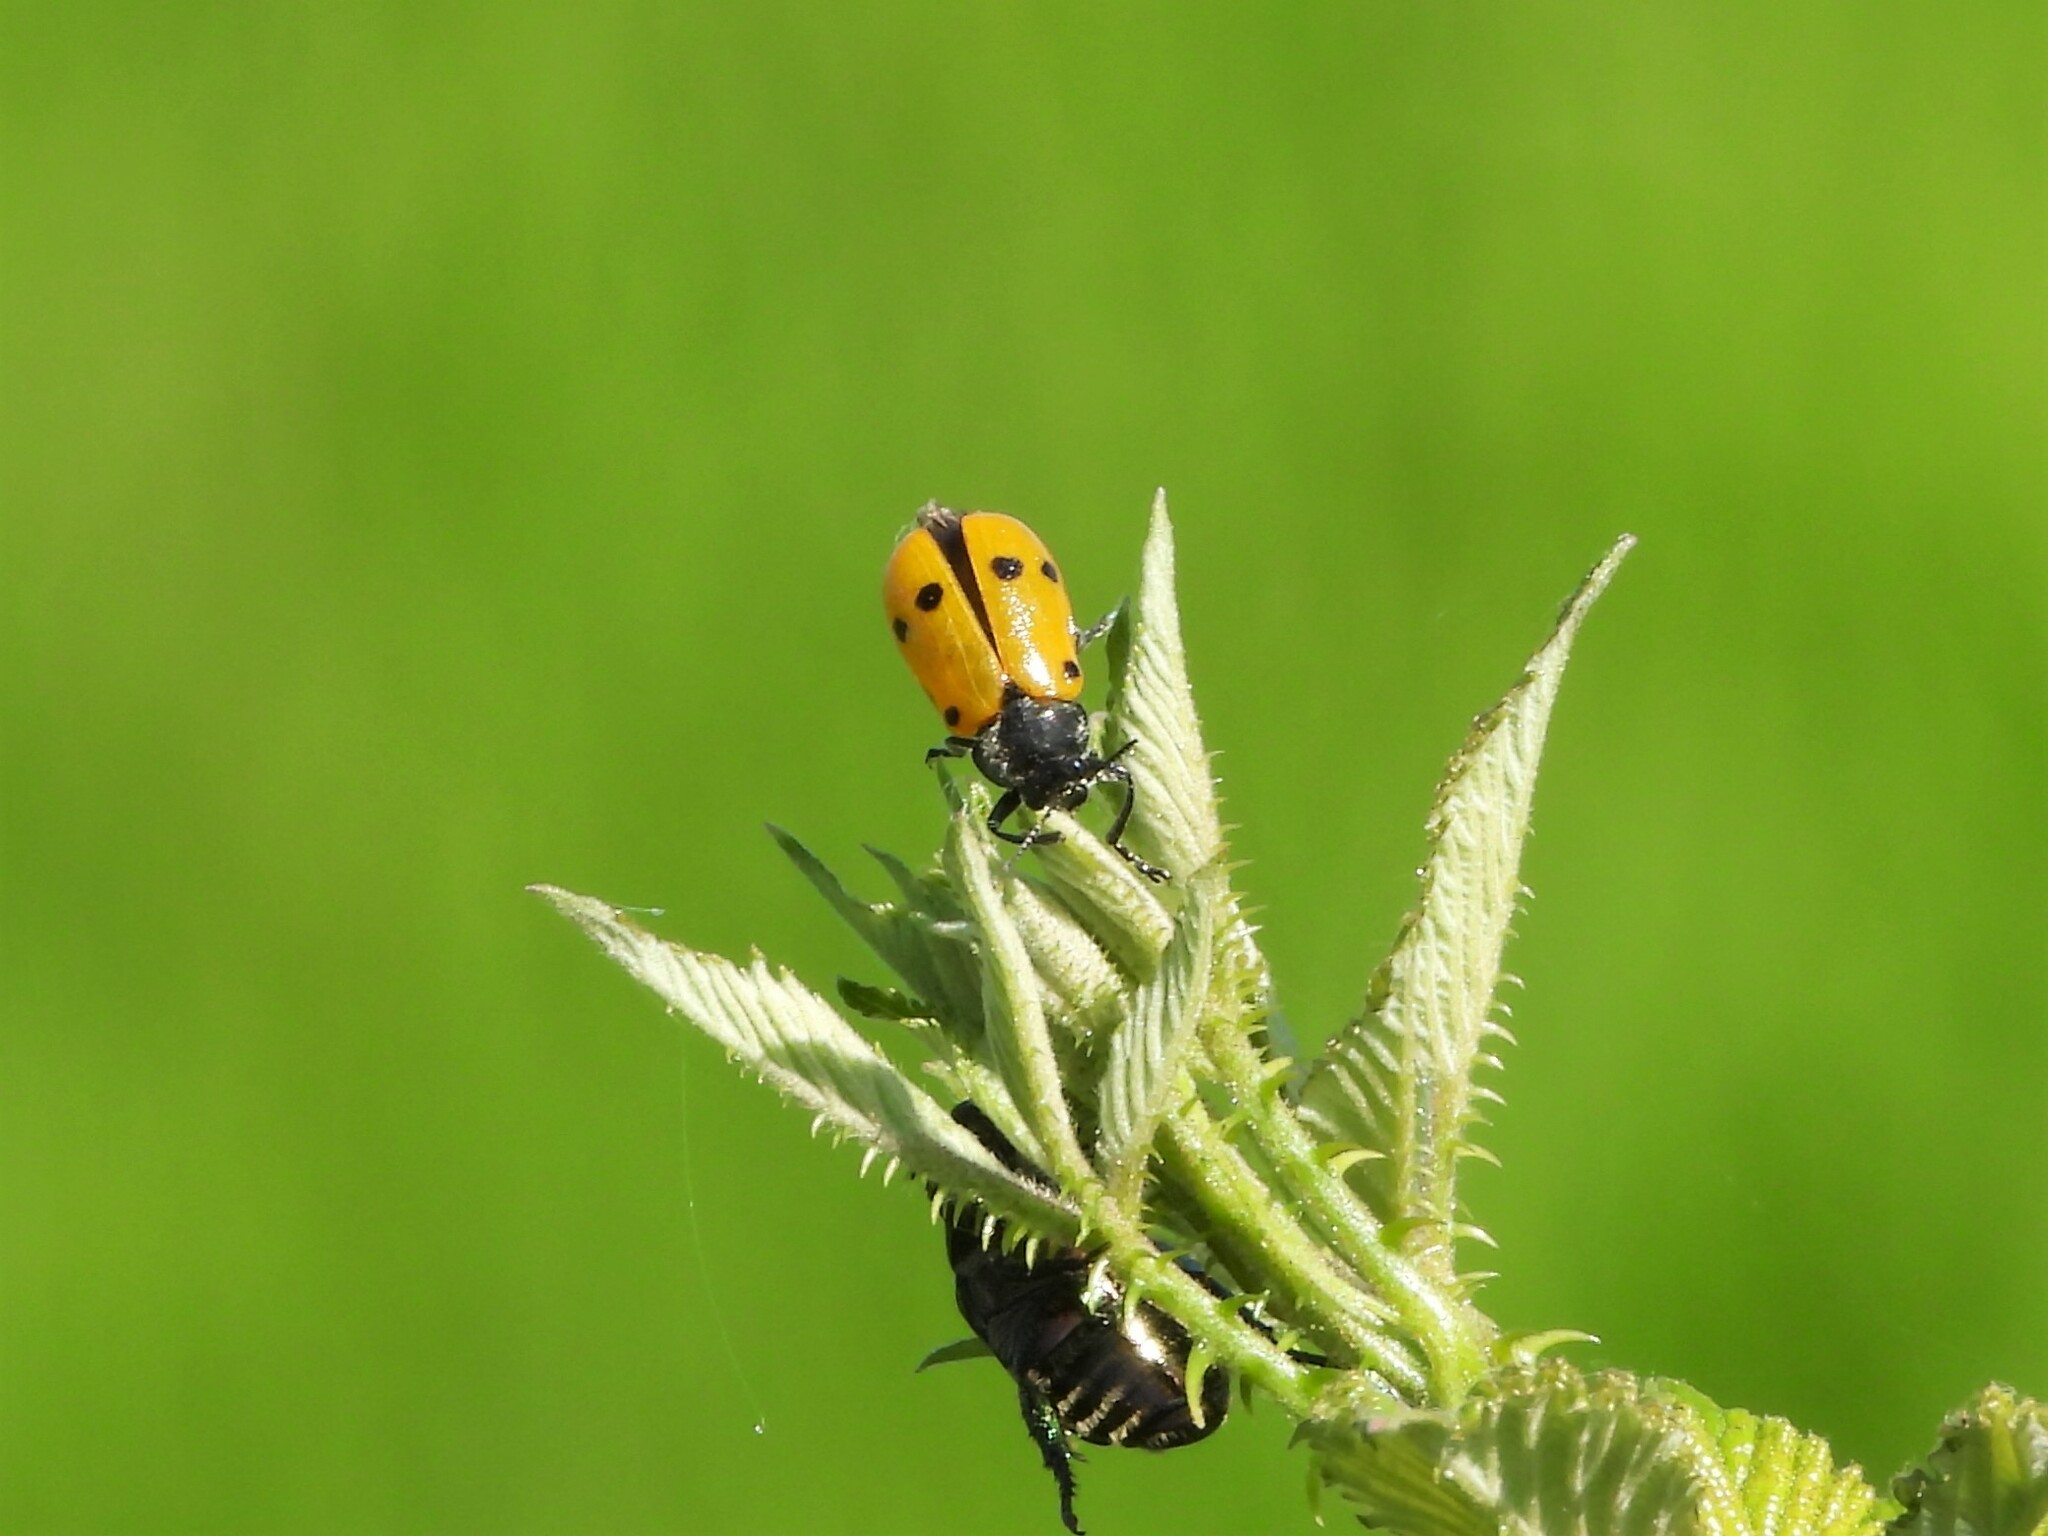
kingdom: Animalia
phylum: Arthropoda
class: Insecta
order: Coleoptera
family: Chrysomelidae
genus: Lachnaia
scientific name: Lachnaia italica
